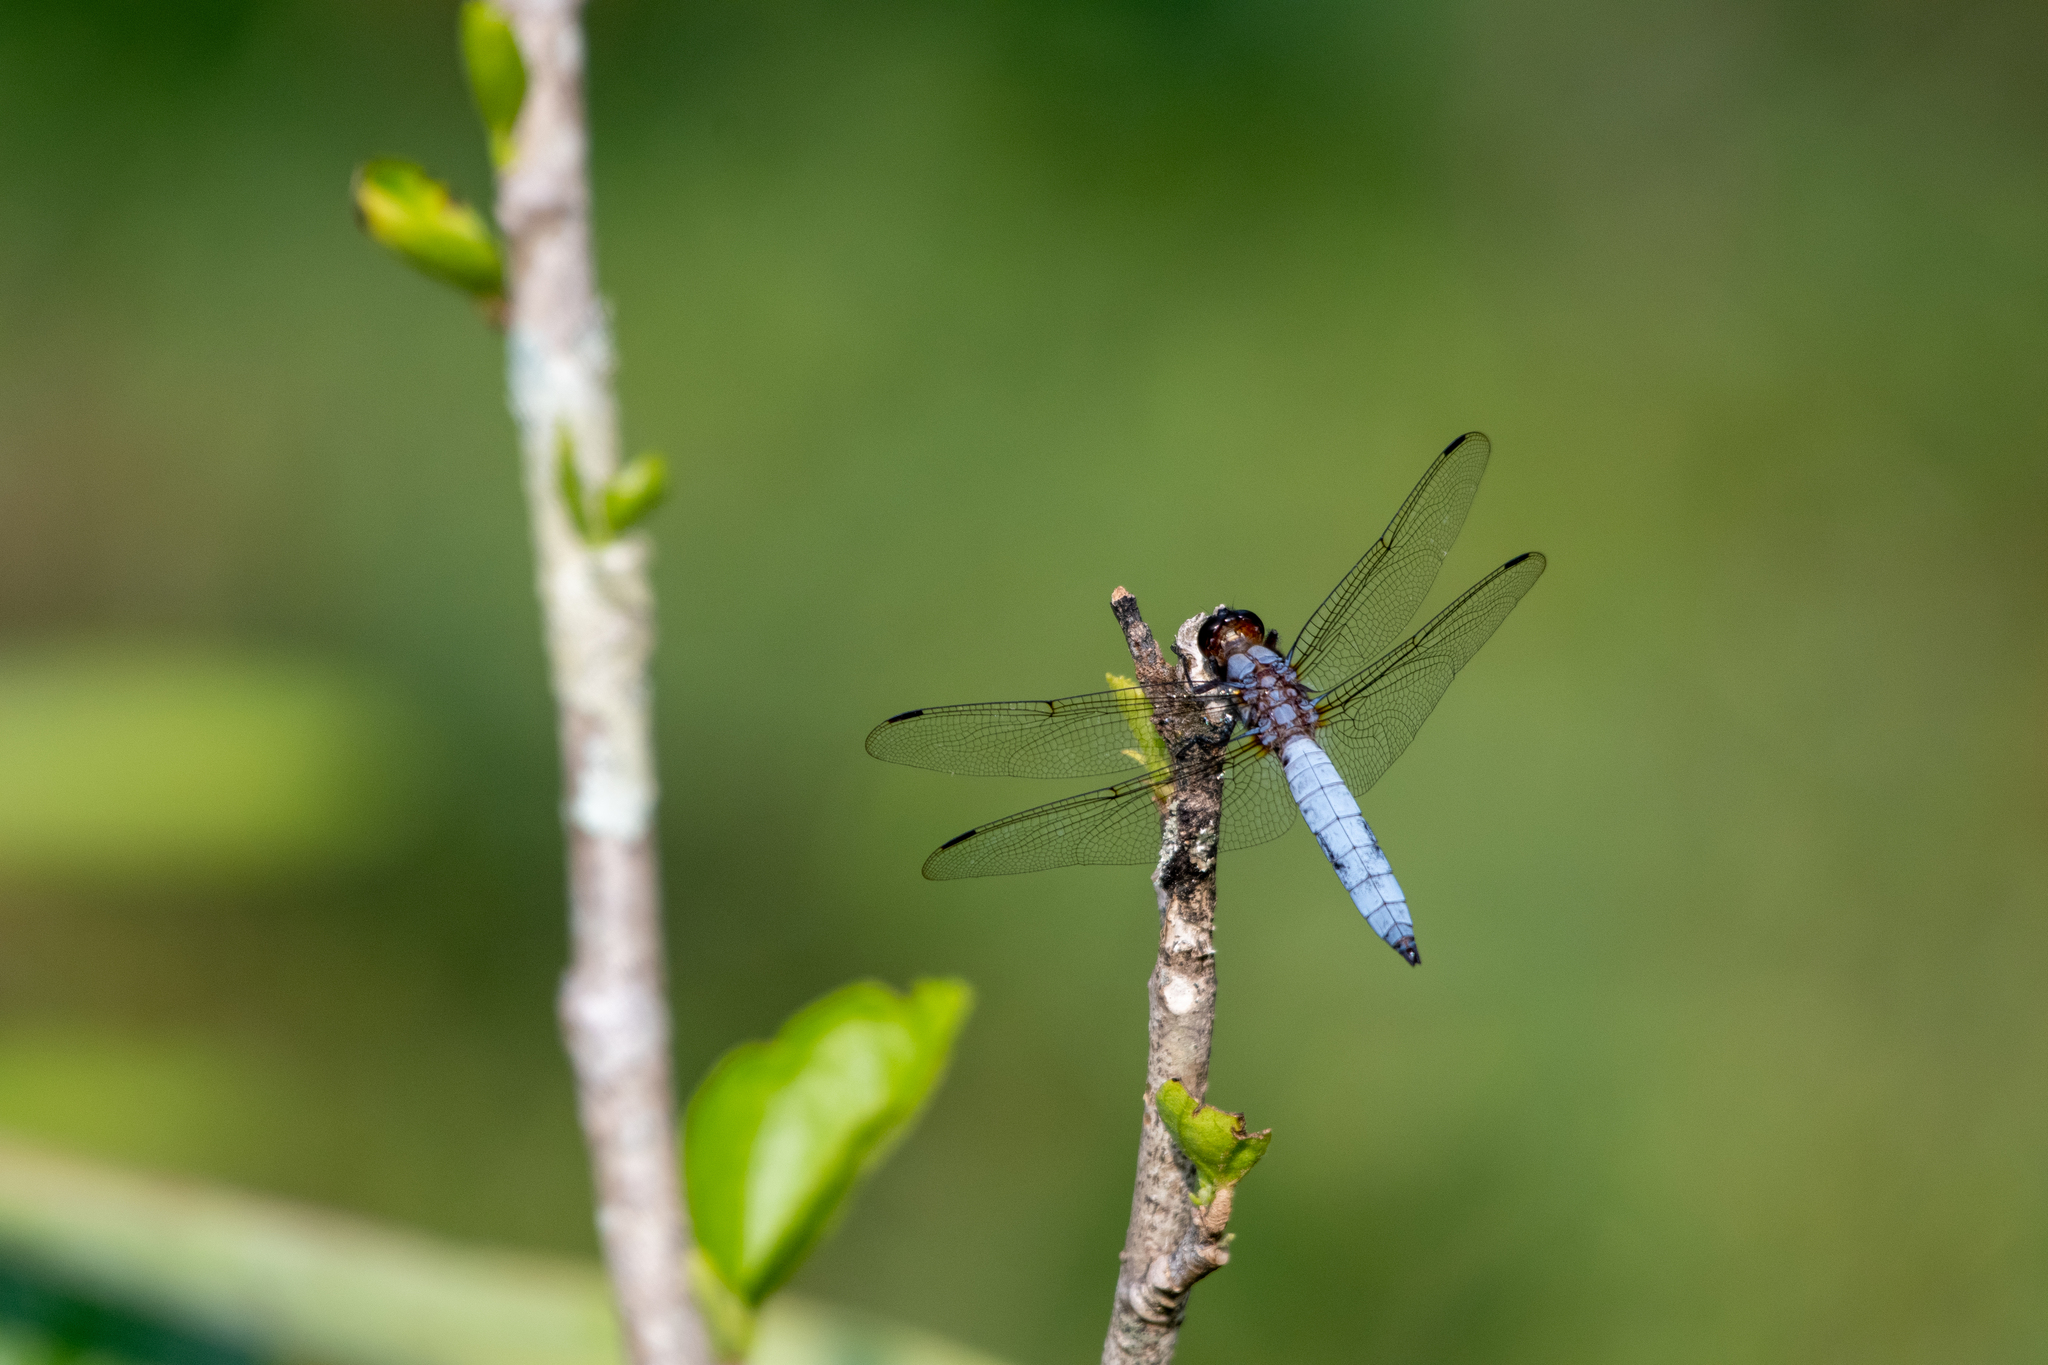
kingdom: Animalia
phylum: Arthropoda
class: Insecta
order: Odonata
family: Libellulidae
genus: Libellula
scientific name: Libellula foliata
